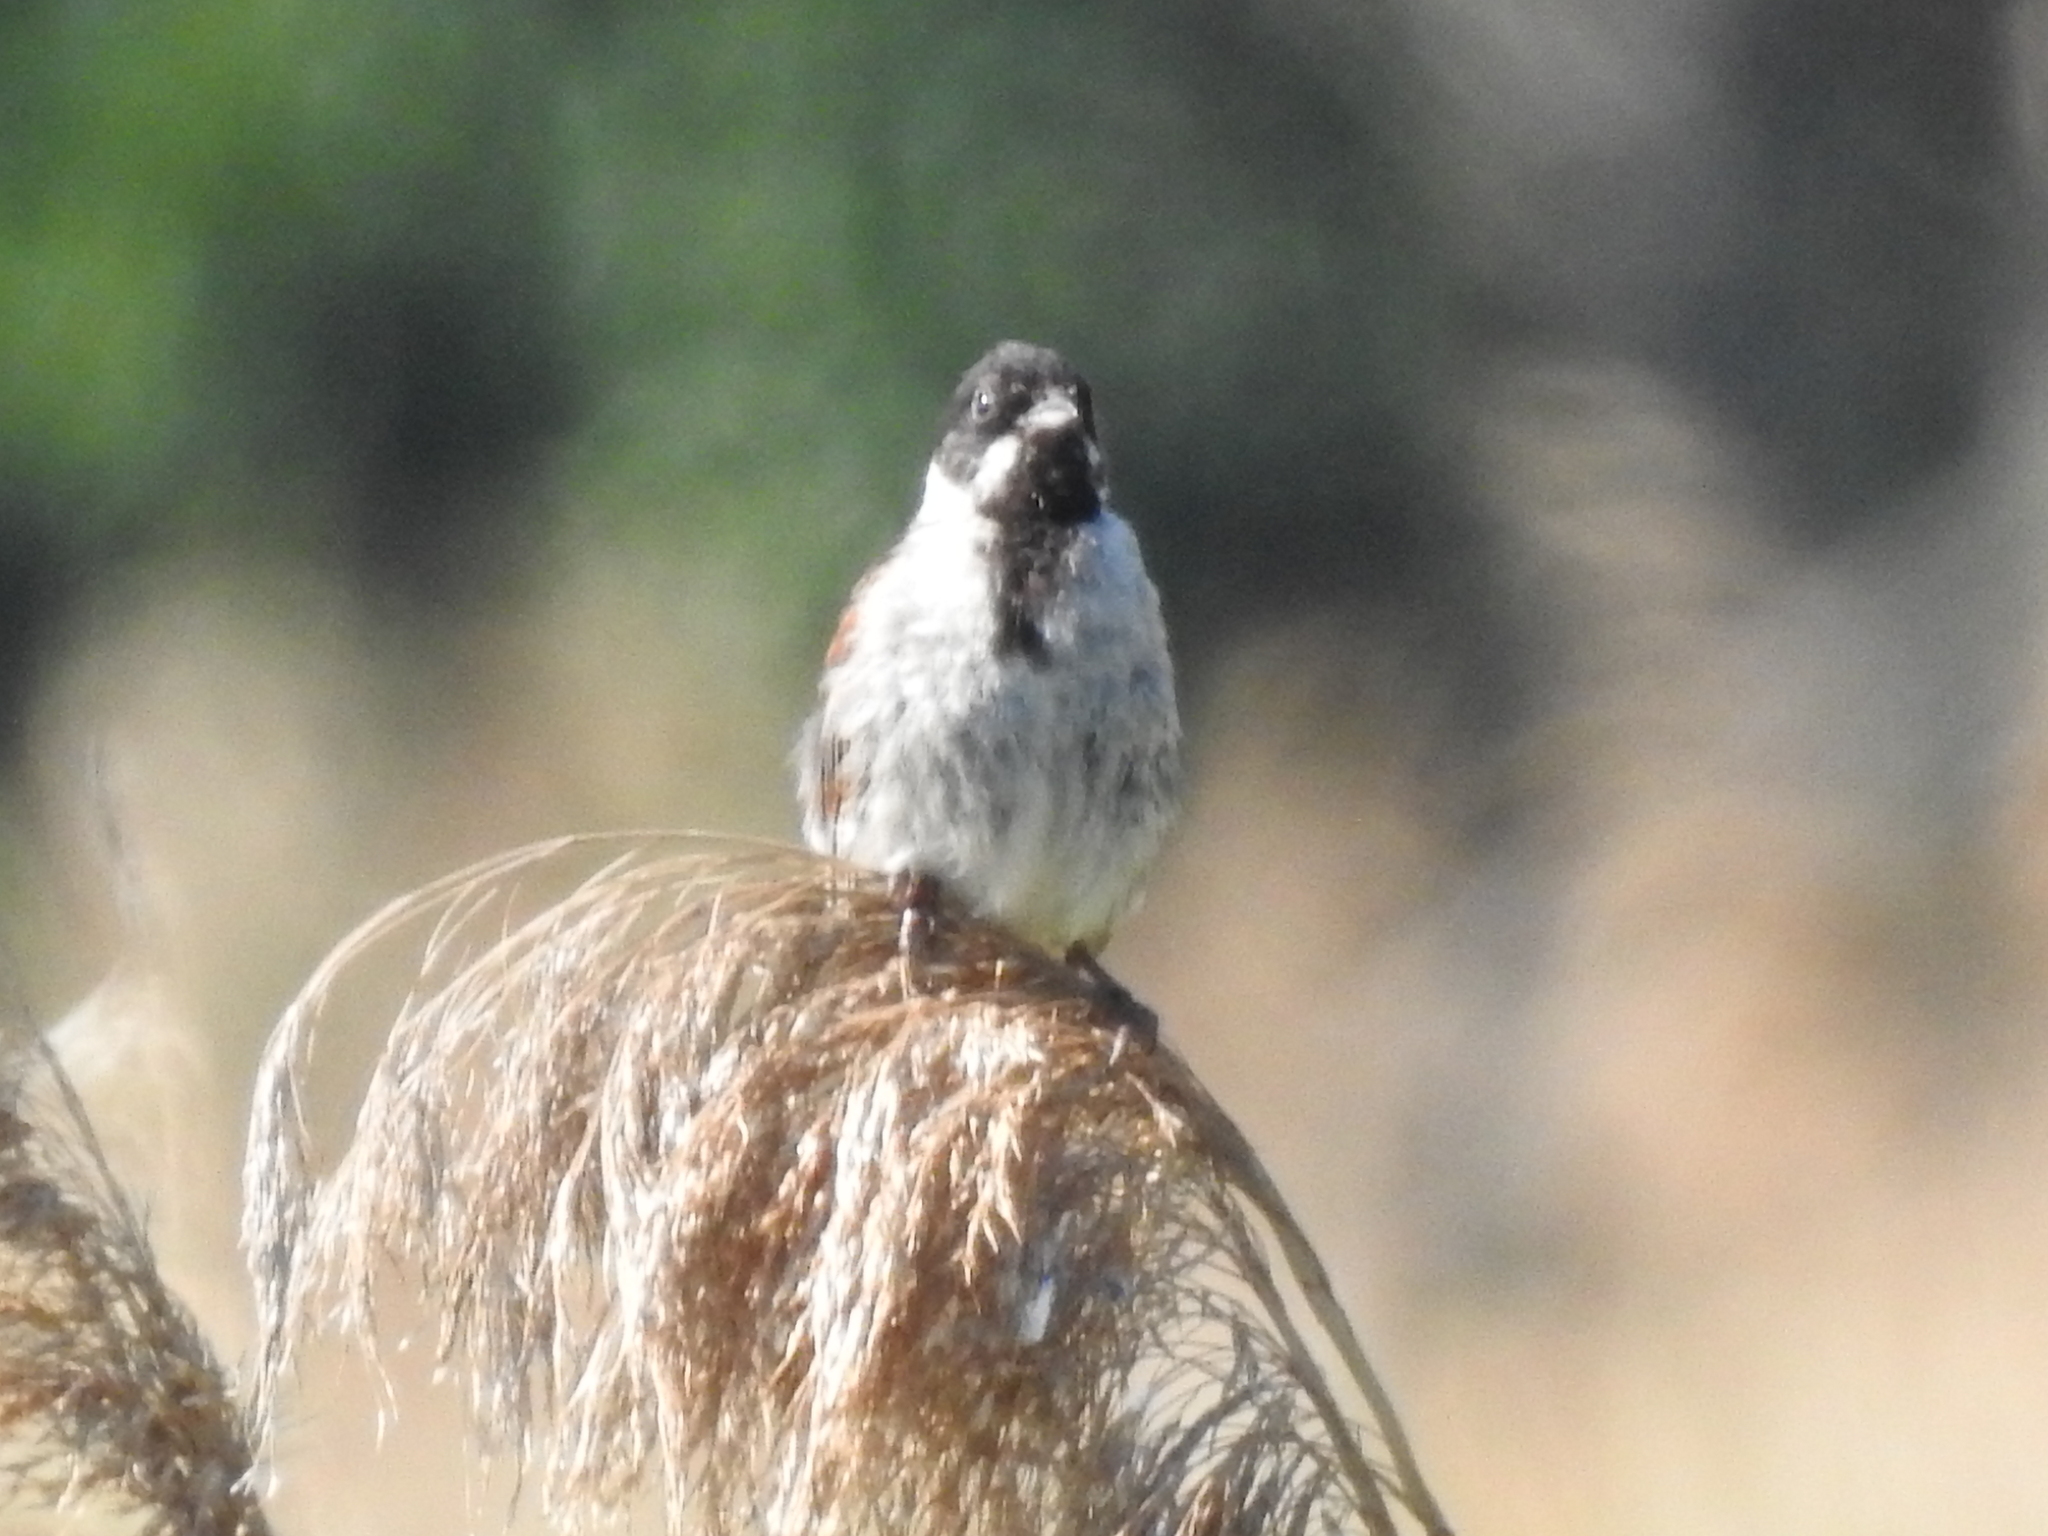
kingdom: Animalia
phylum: Chordata
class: Aves
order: Passeriformes
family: Emberizidae
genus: Emberiza
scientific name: Emberiza schoeniclus
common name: Reed bunting
